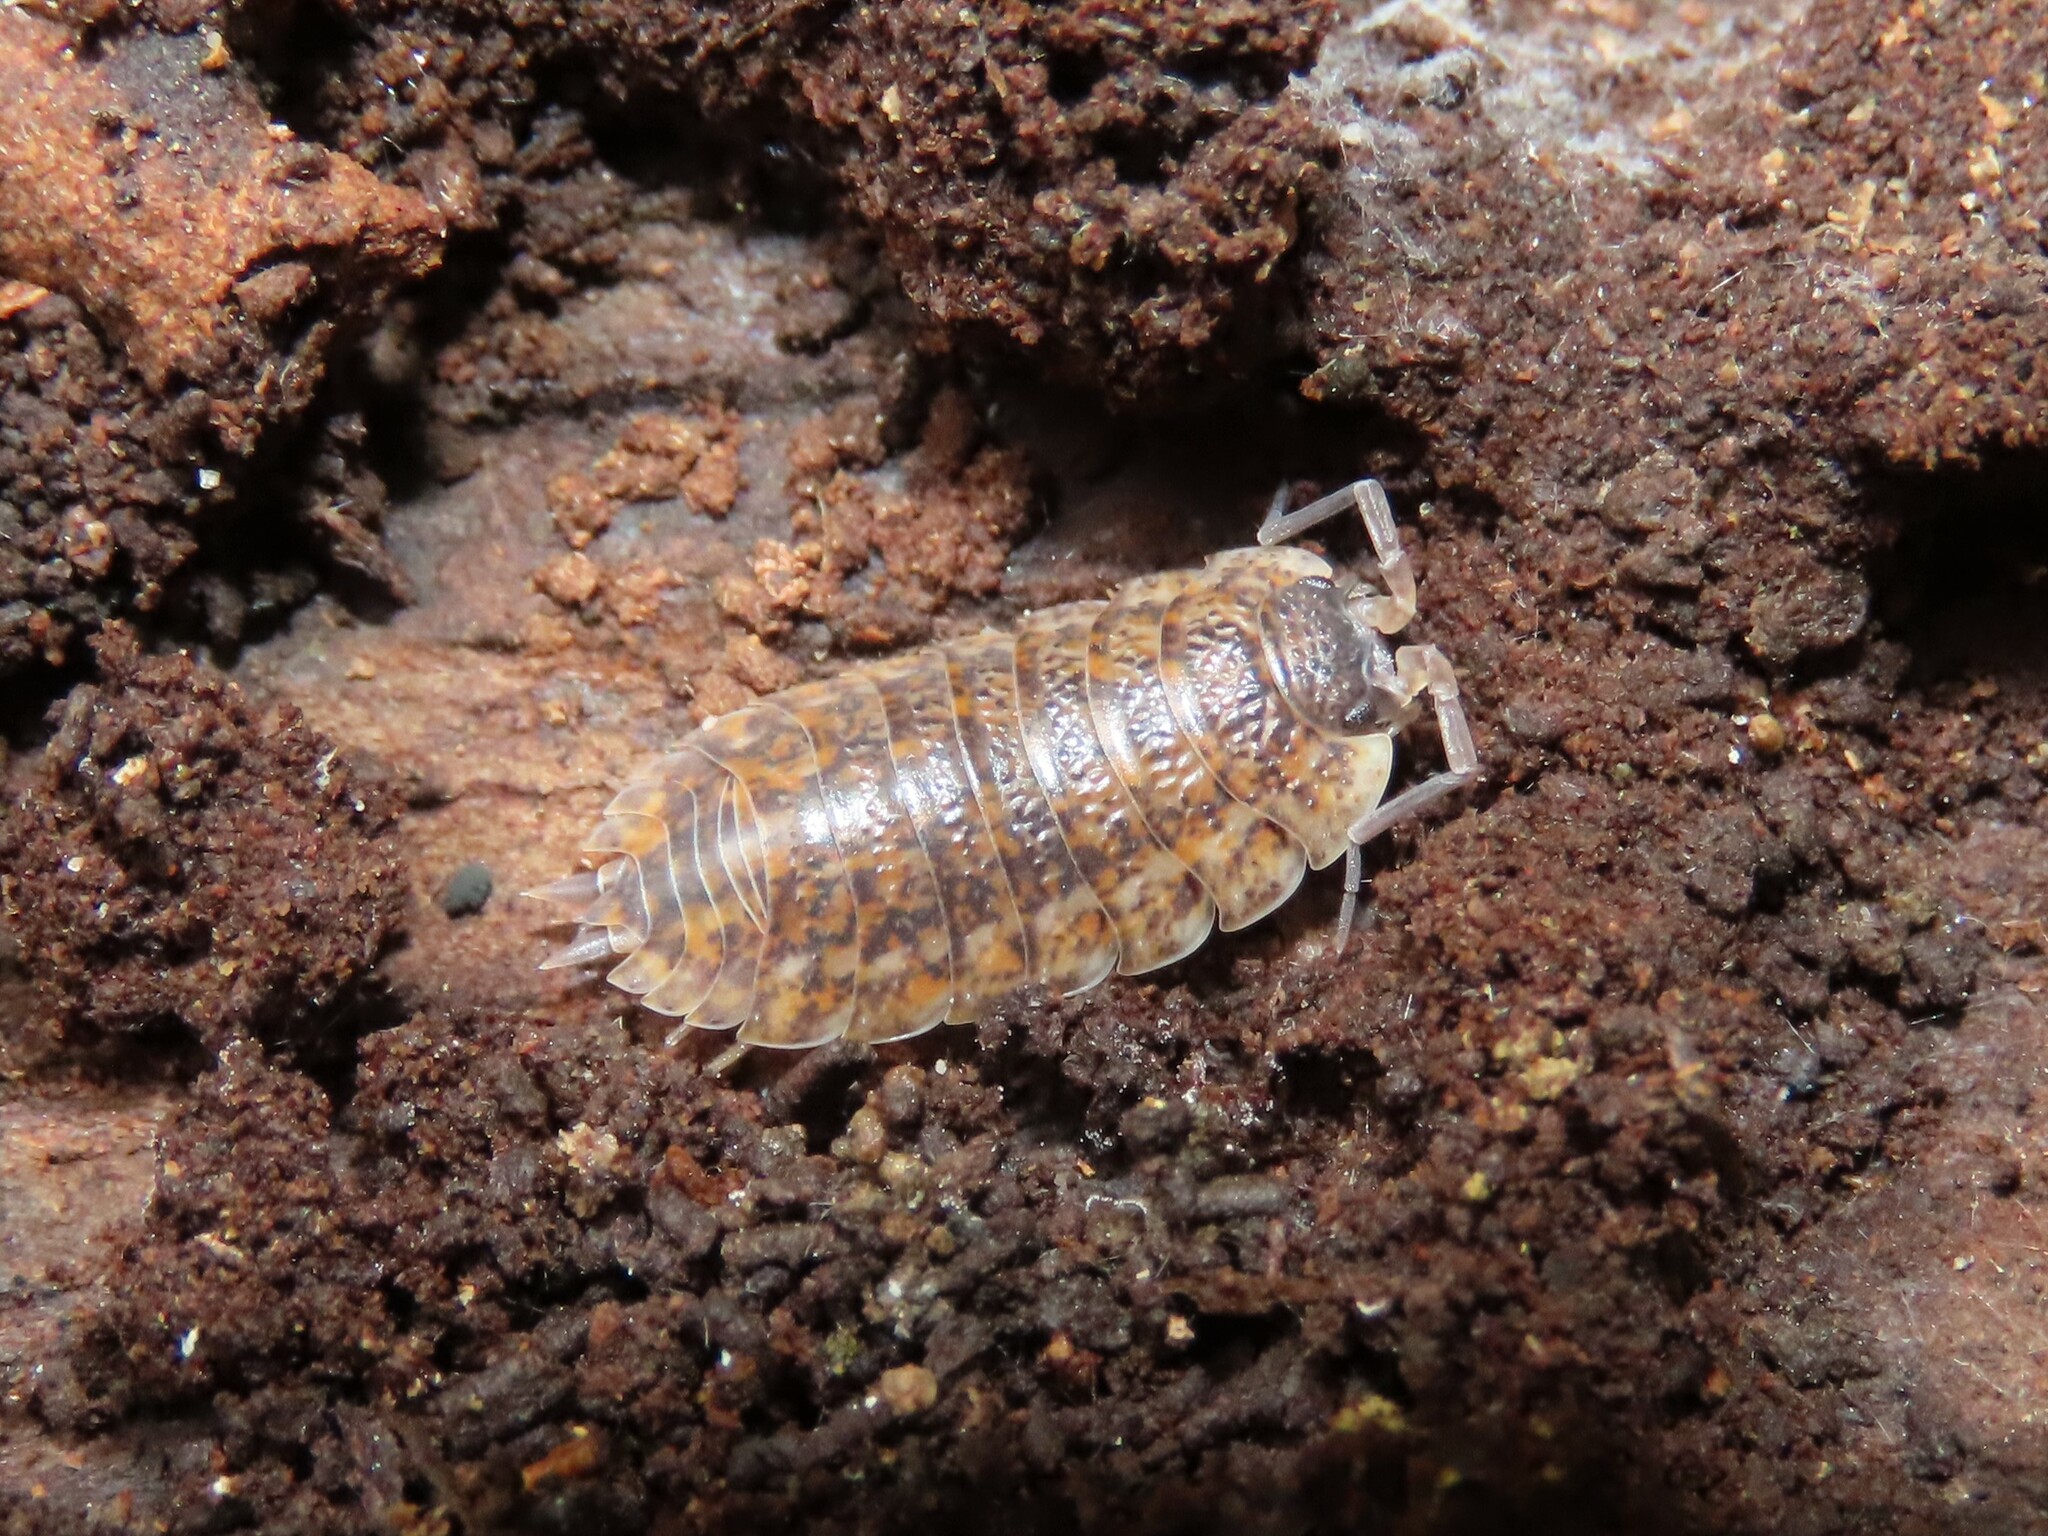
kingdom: Animalia
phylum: Arthropoda
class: Malacostraca
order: Isopoda
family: Trachelipodidae
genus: Trachelipus
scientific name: Trachelipus rathkii
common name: Isopod
